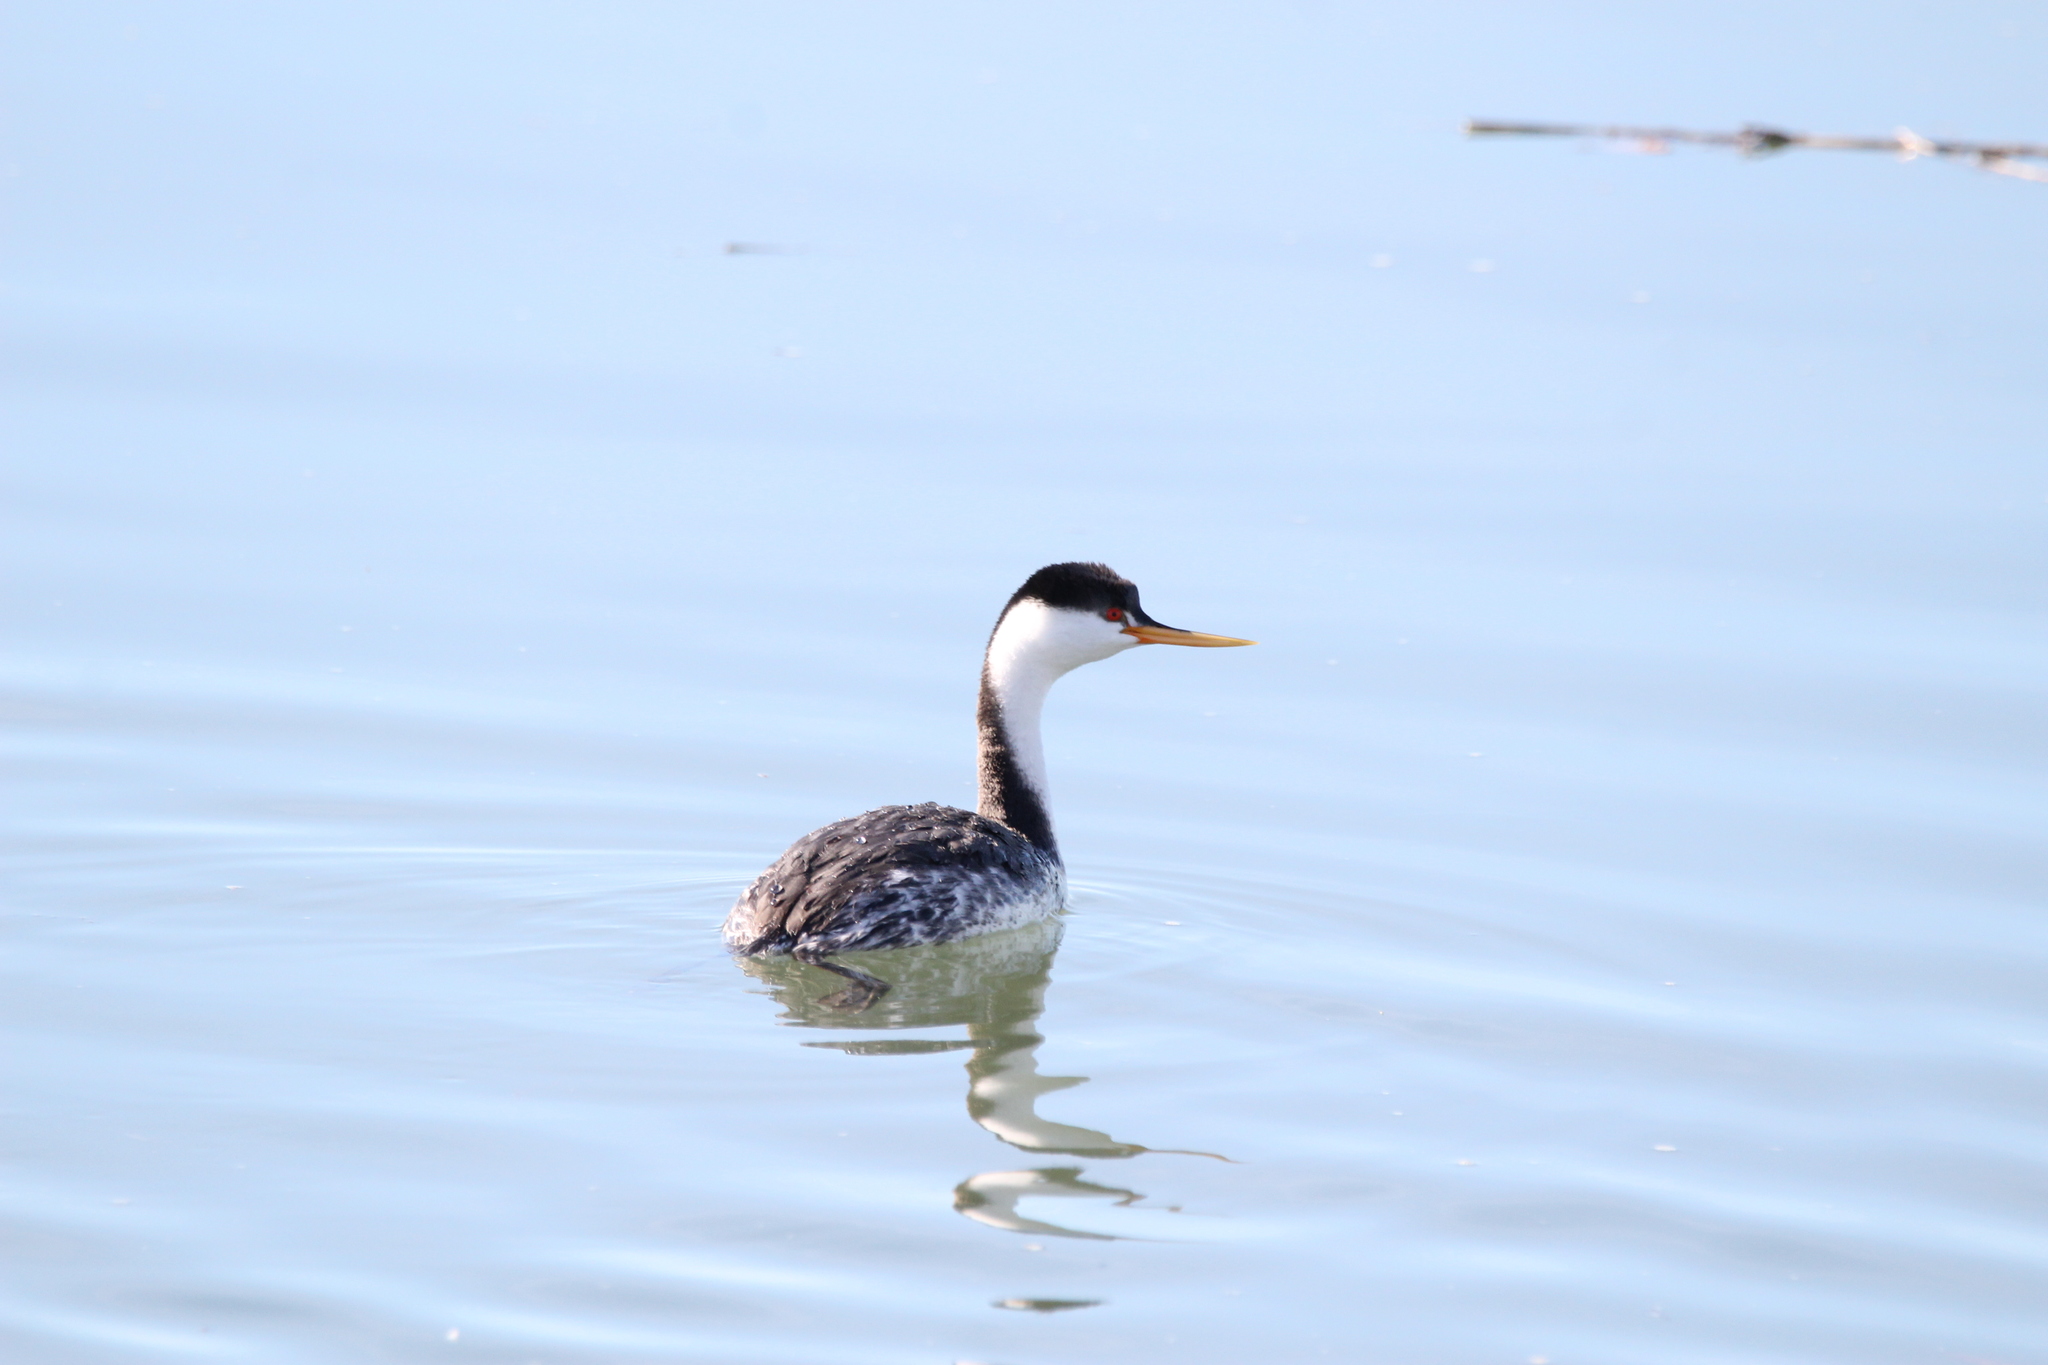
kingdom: Animalia
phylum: Chordata
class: Aves
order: Podicipediformes
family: Podicipedidae
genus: Aechmophorus
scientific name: Aechmophorus occidentalis
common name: Western grebe
